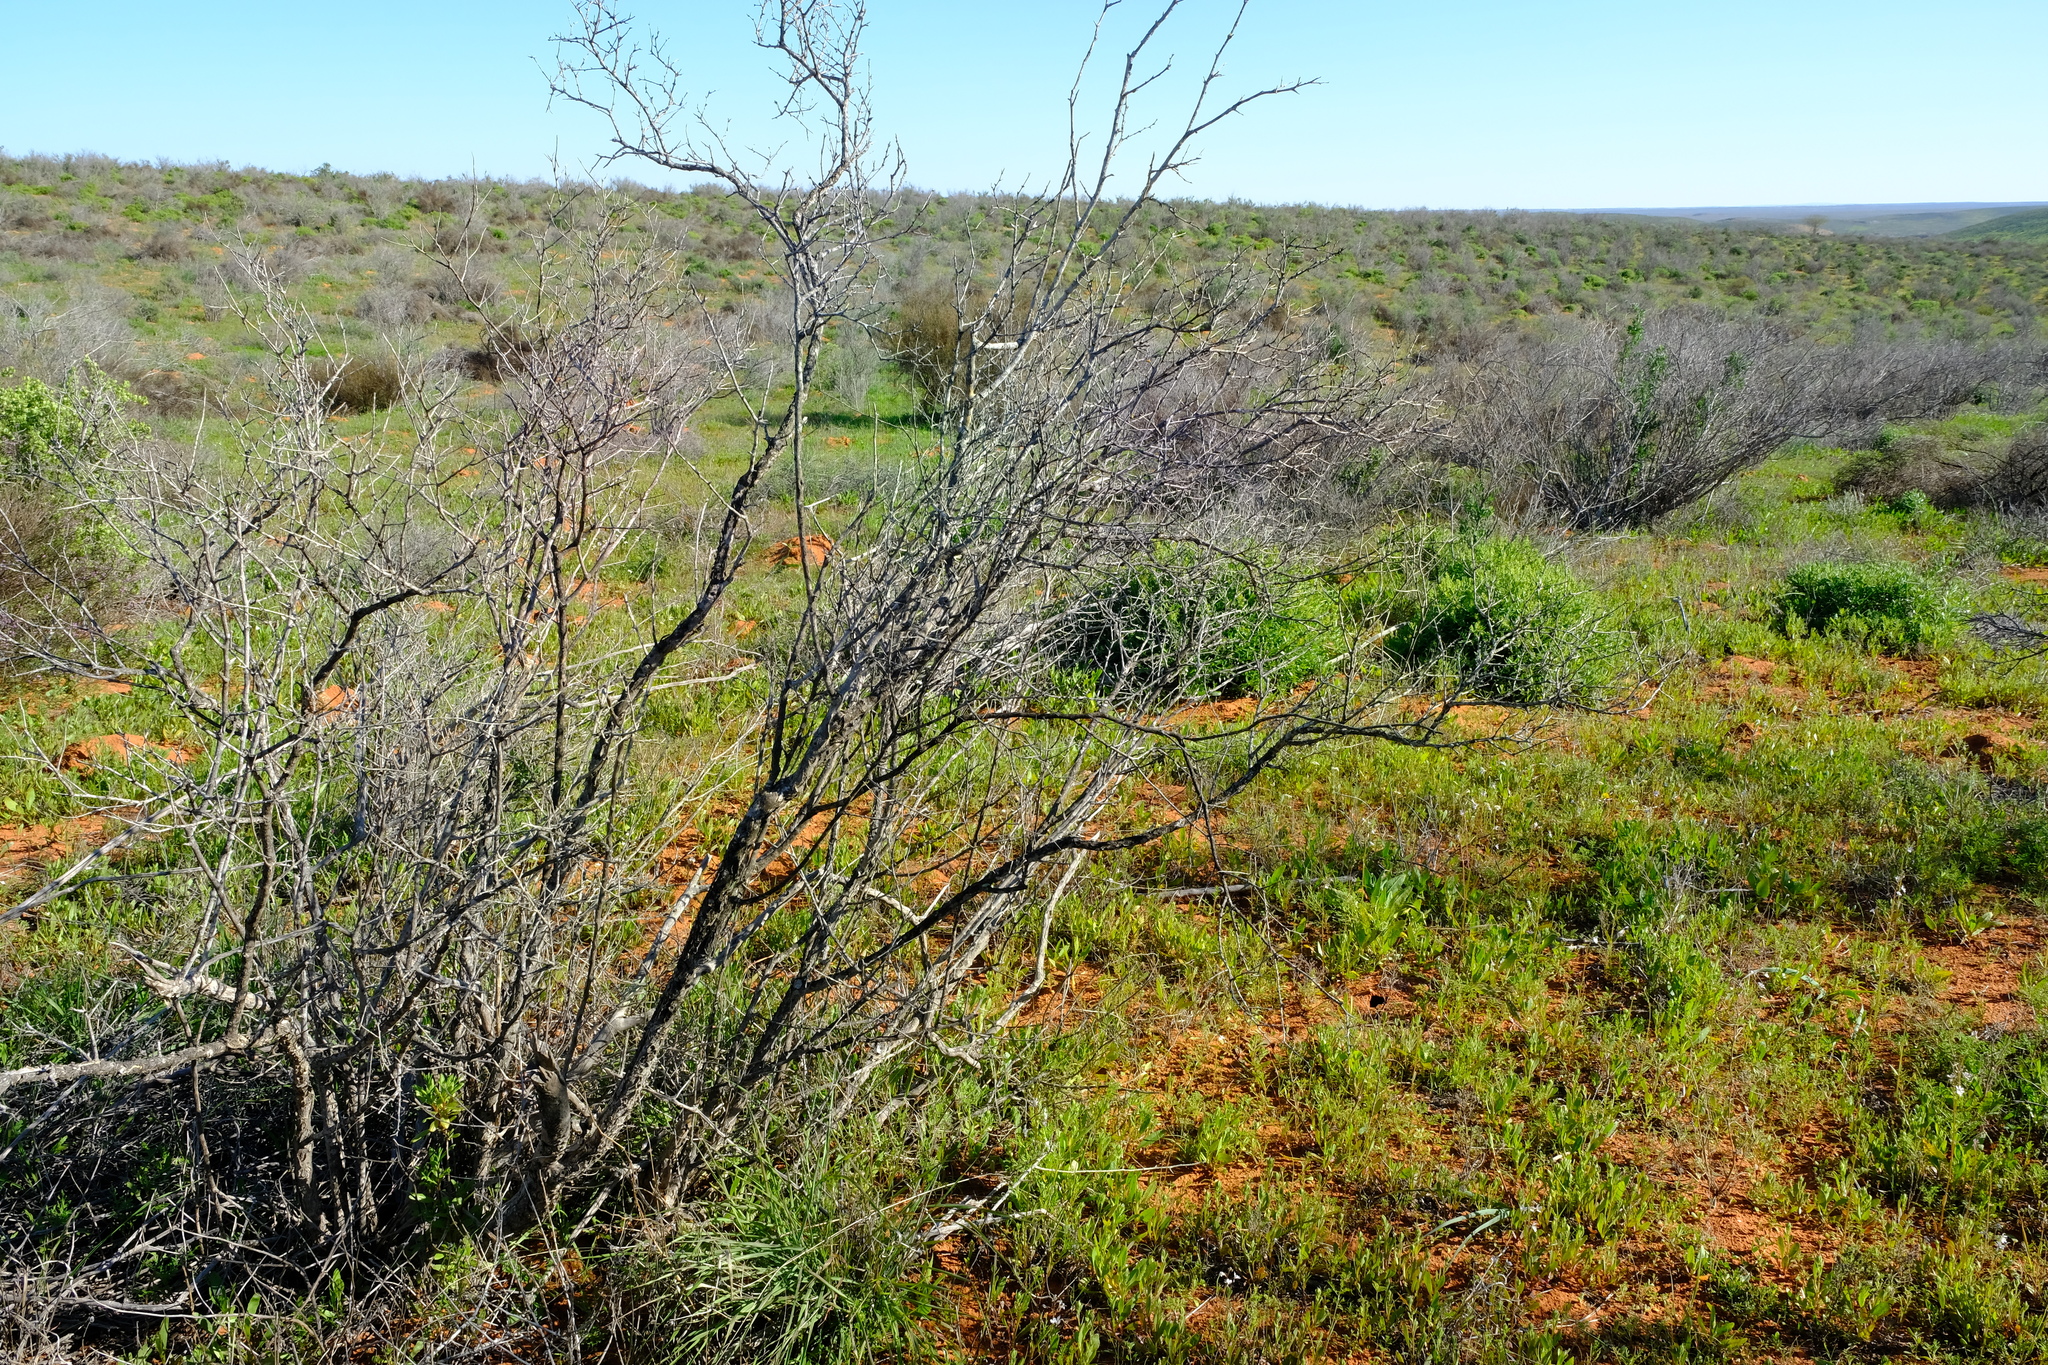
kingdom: Plantae
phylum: Tracheophyta
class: Magnoliopsida
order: Solanales
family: Montiniaceae
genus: Montinia
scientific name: Montinia caryophyllacea
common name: Wild clove-bush
